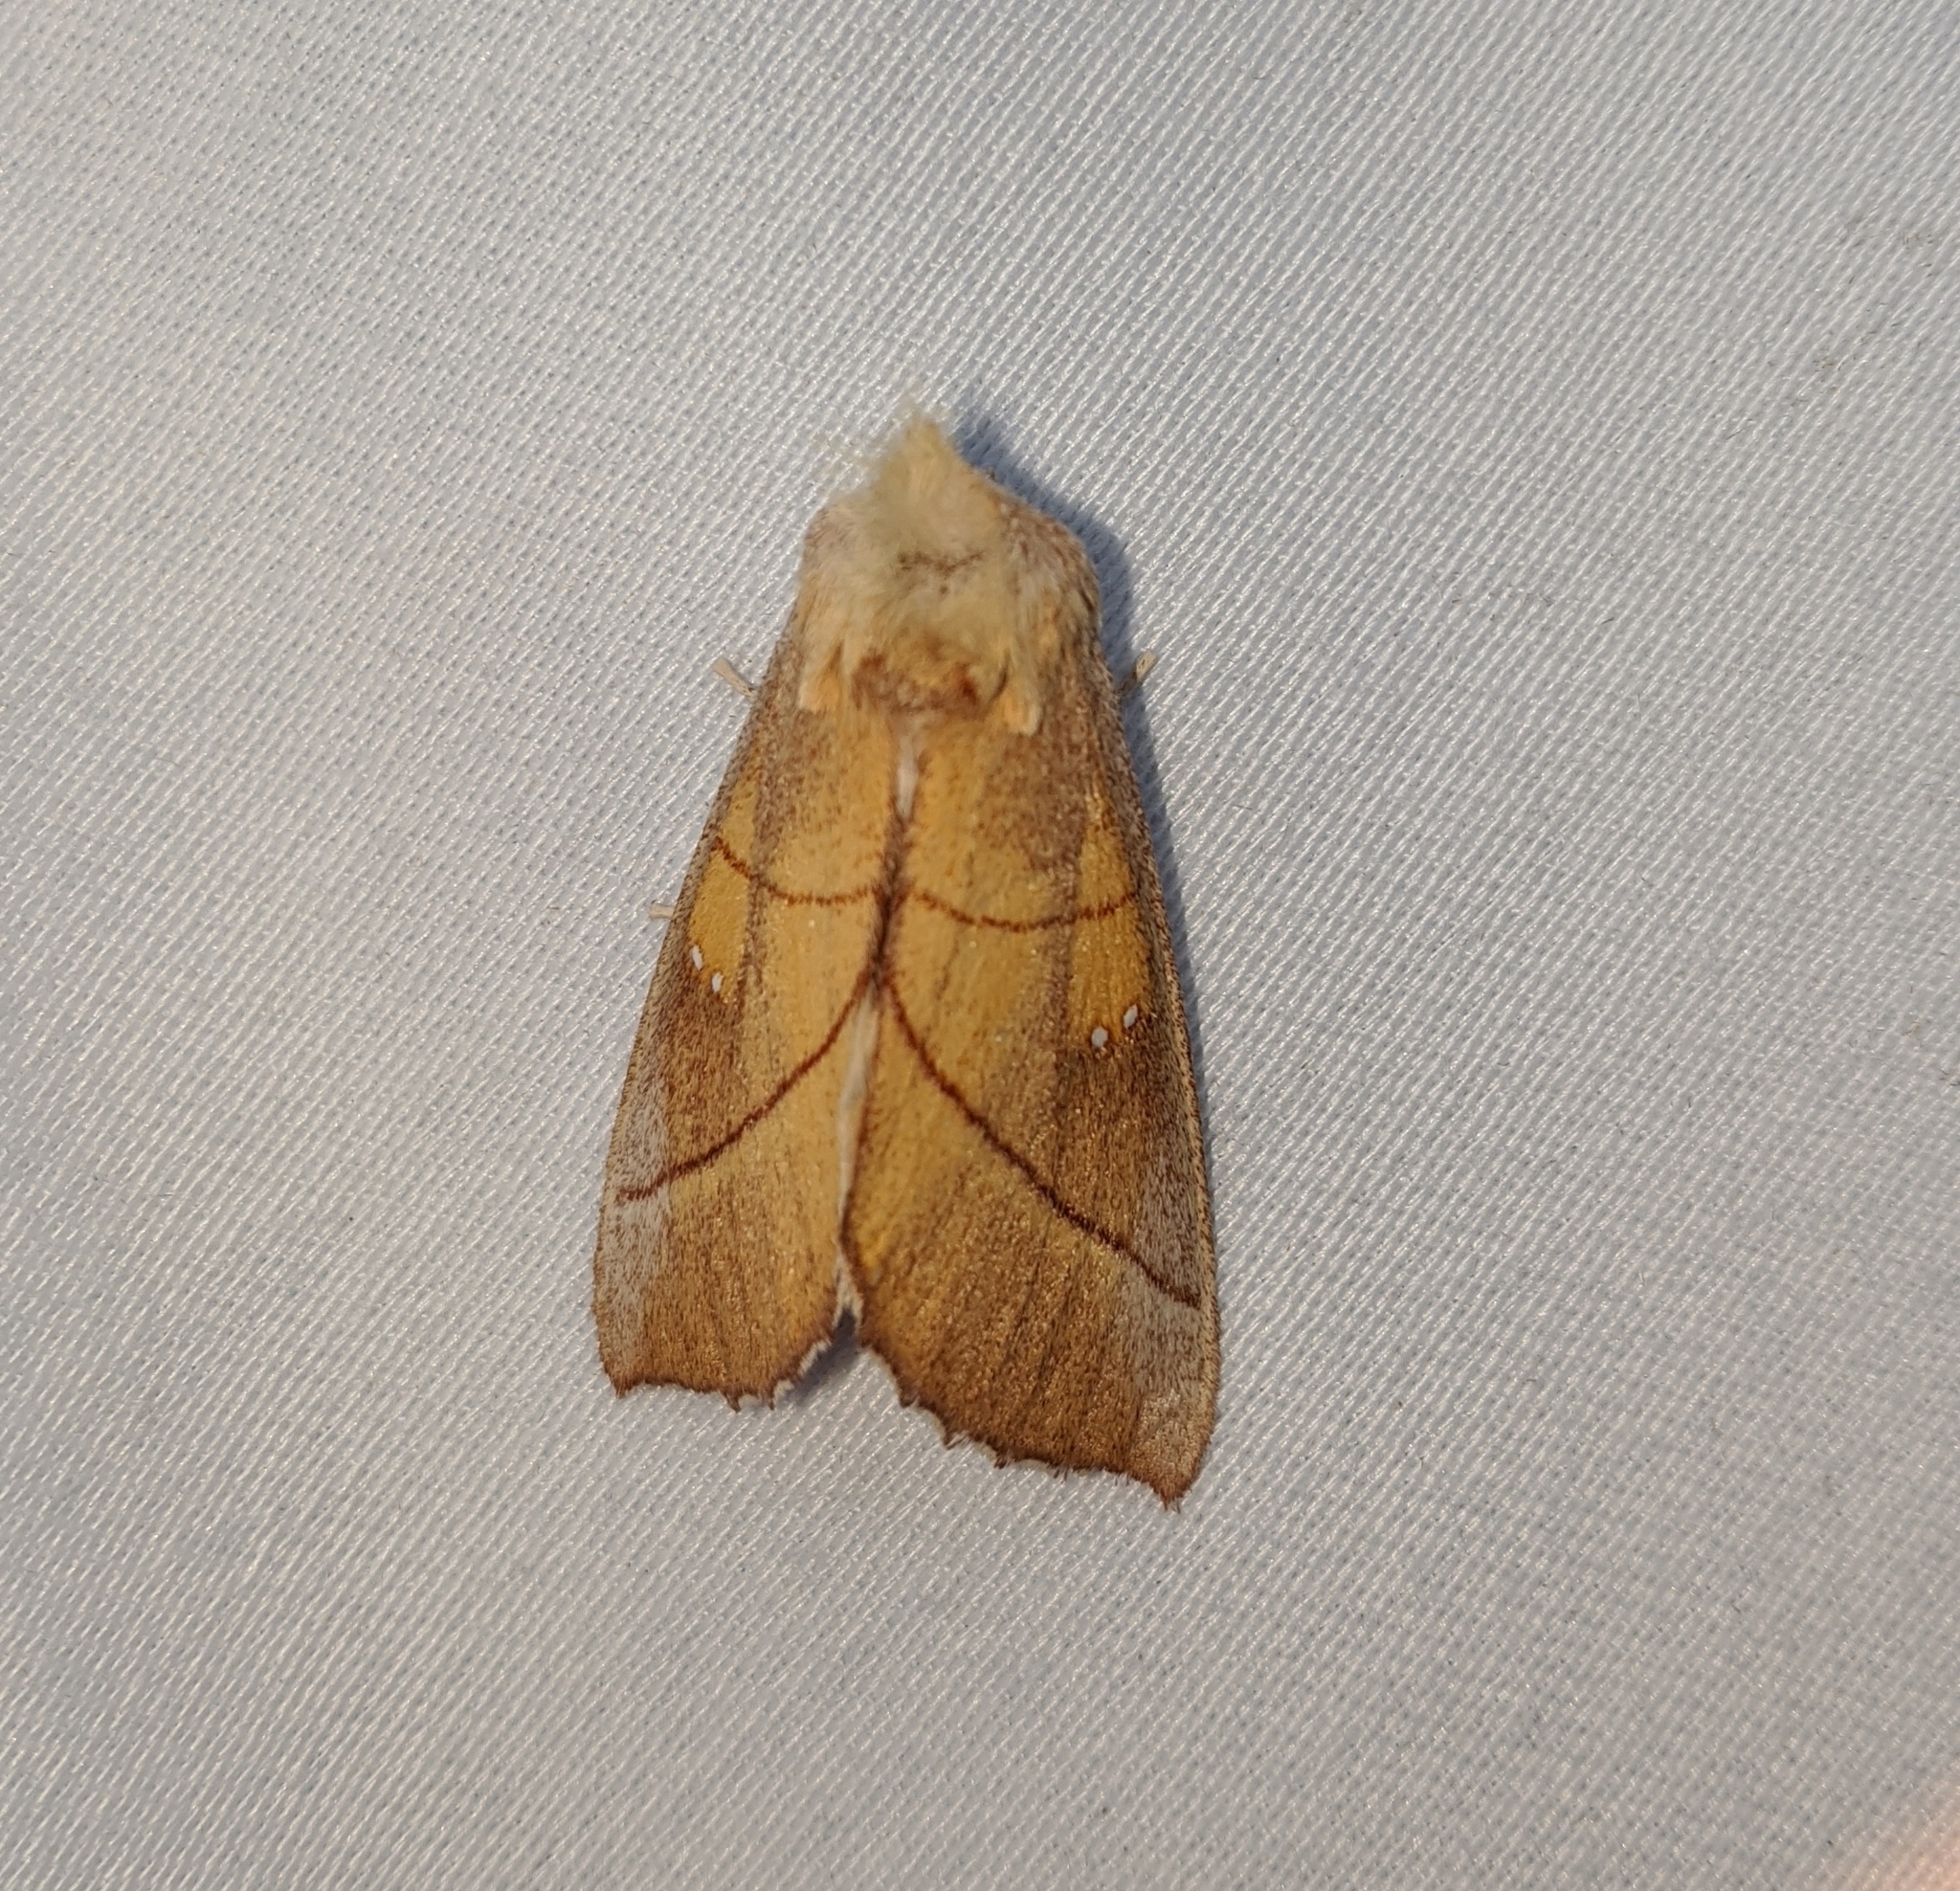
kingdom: Animalia
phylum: Arthropoda
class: Insecta
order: Lepidoptera
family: Notodontidae
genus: Nadata
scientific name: Nadata gibbosa
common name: White-dotted prominent
